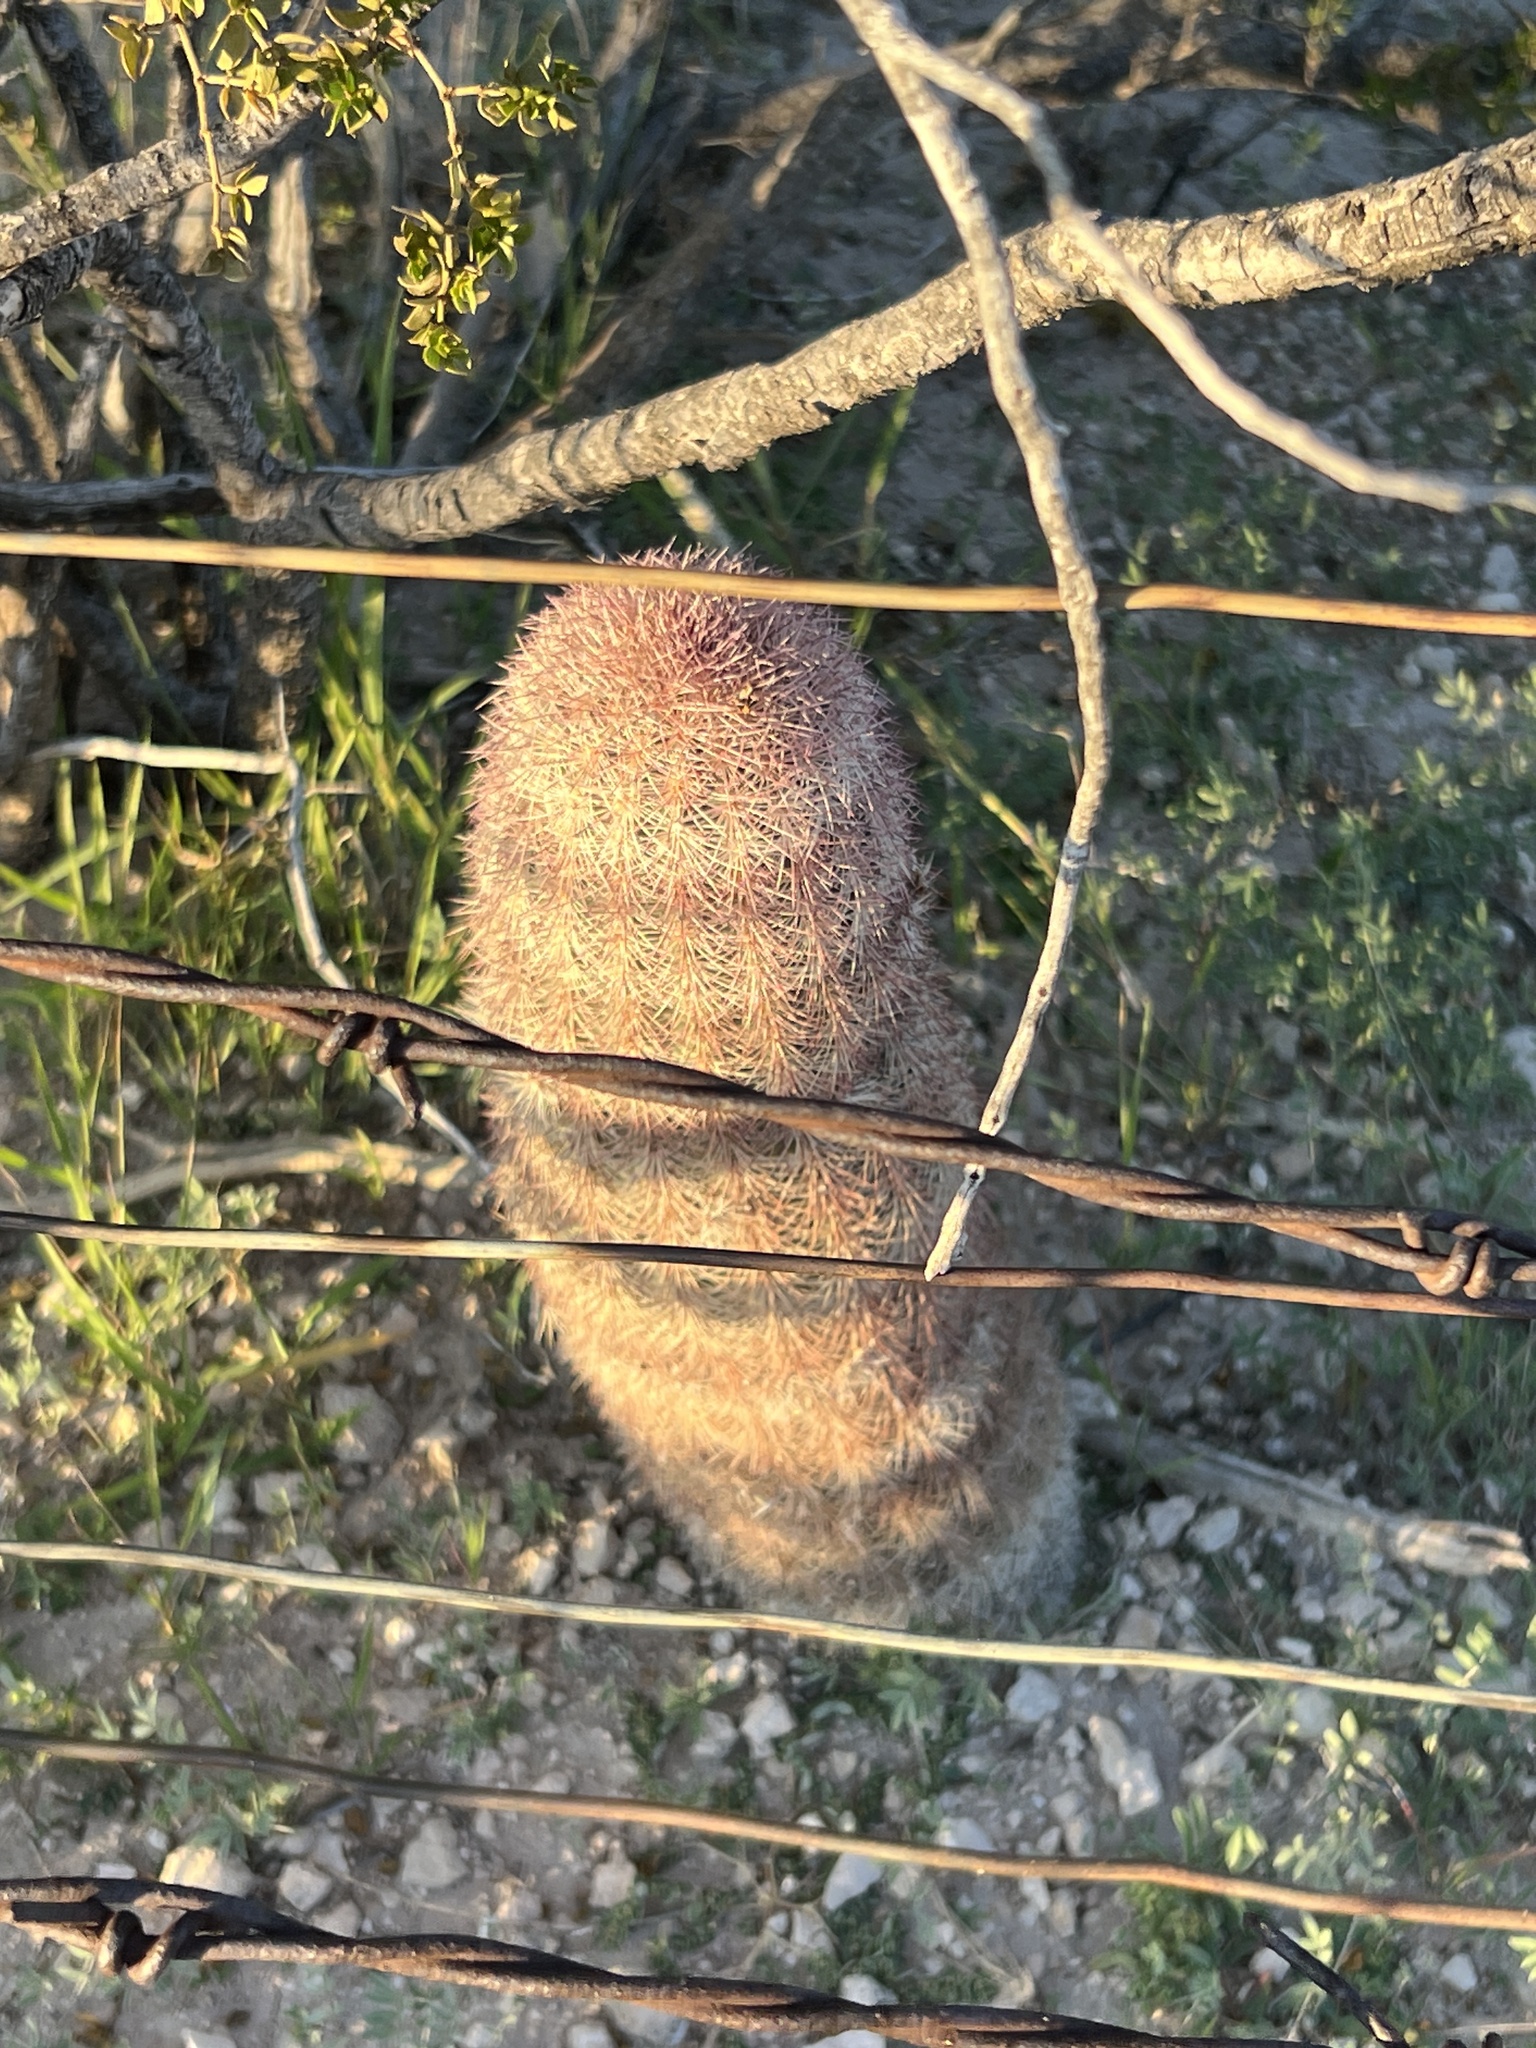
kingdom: Plantae
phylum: Tracheophyta
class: Magnoliopsida
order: Caryophyllales
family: Cactaceae
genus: Echinocereus
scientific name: Echinocereus dasyacanthus
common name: Spiny hedgehog cactus
